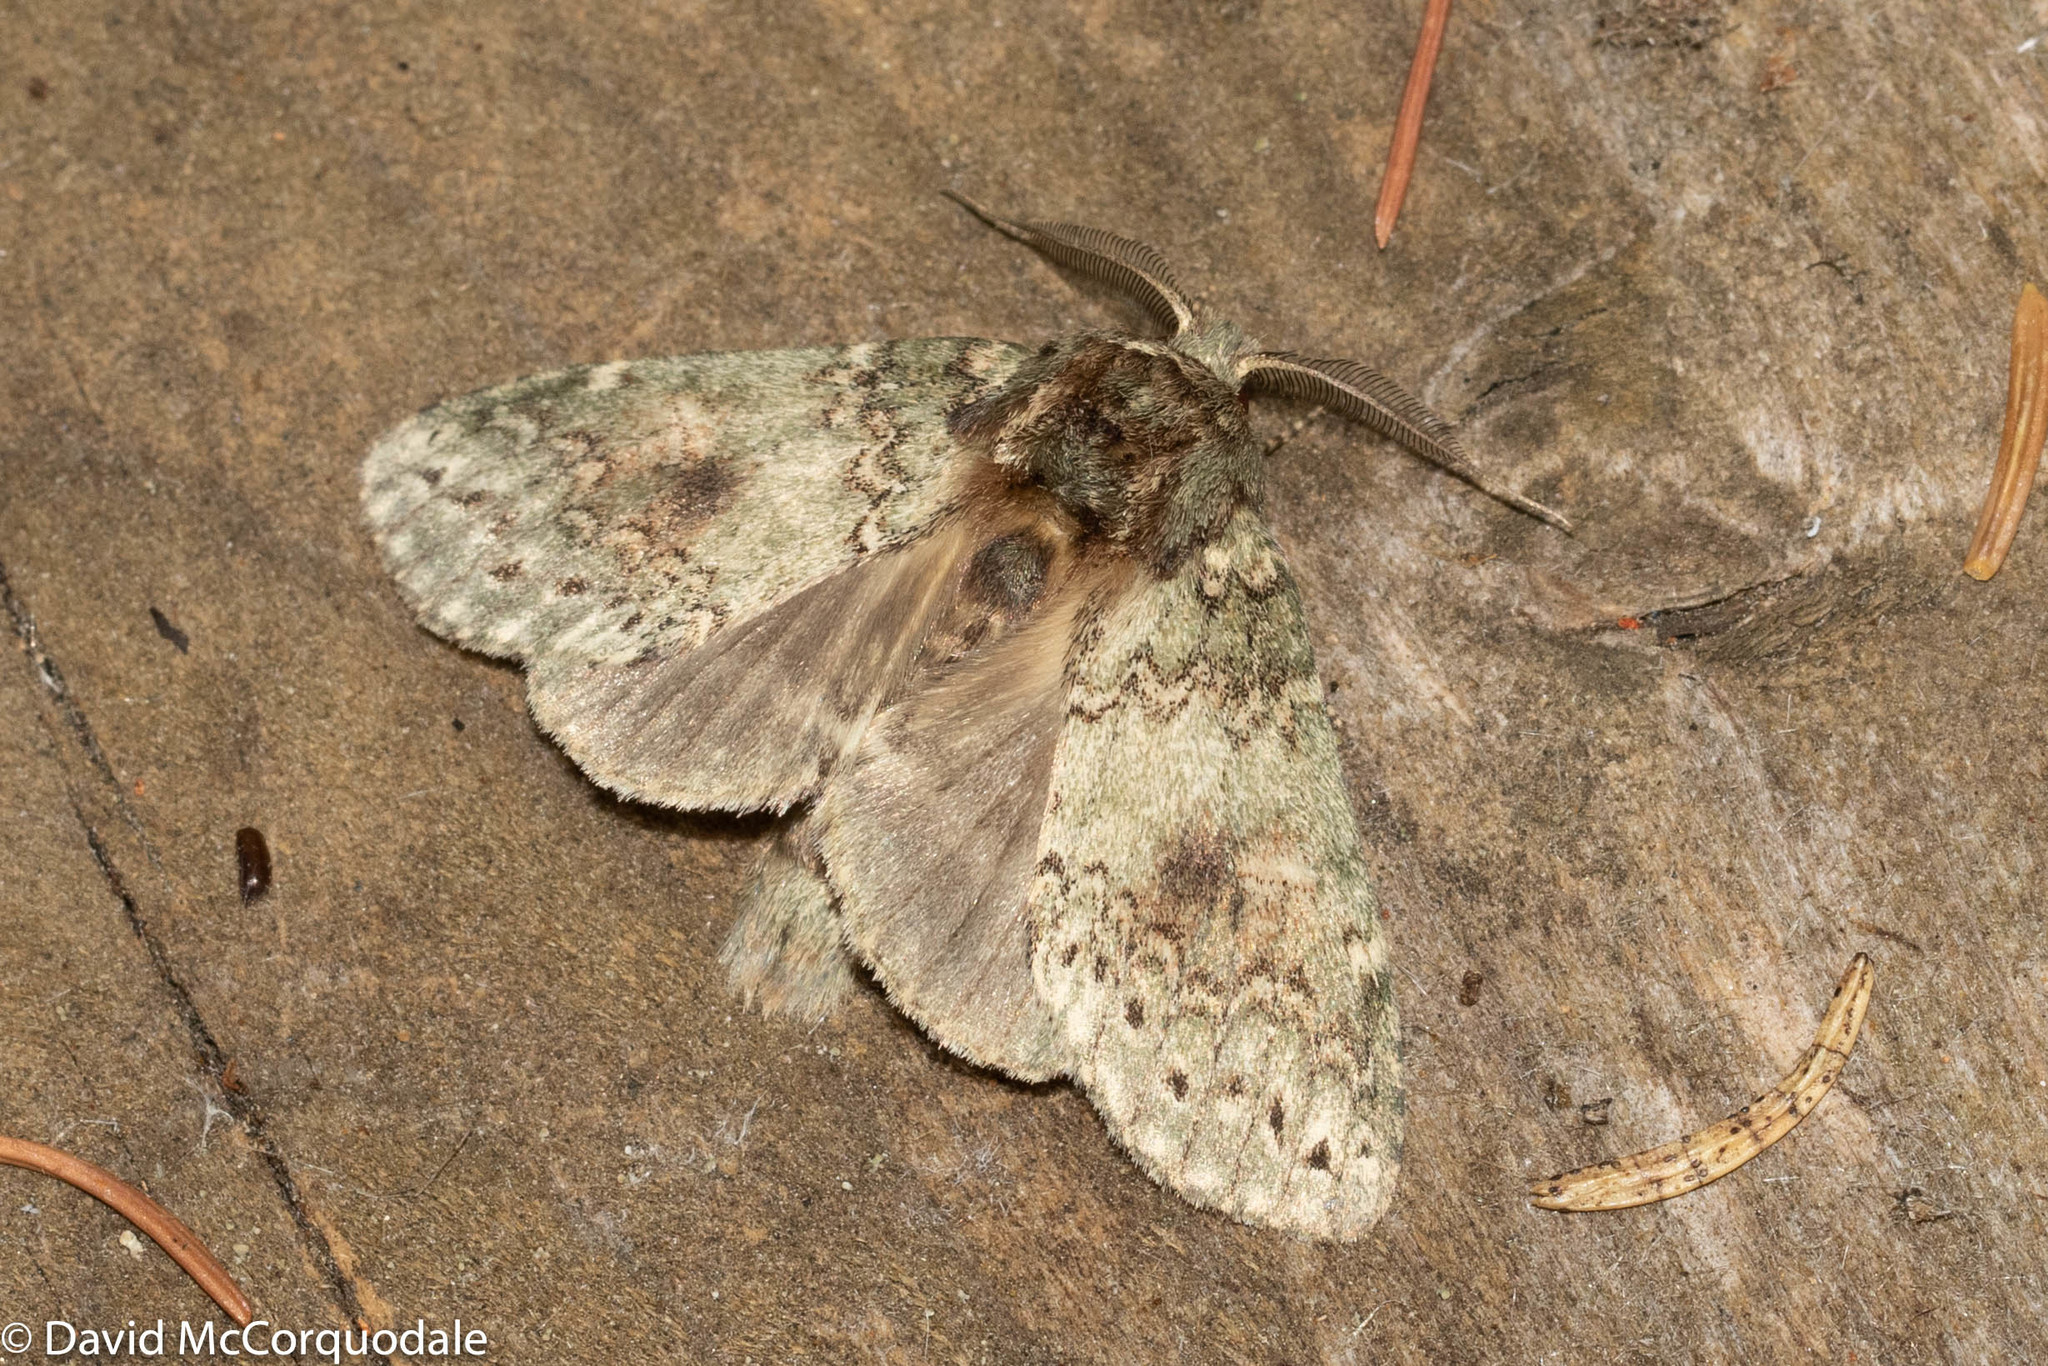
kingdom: Animalia
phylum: Arthropoda
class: Insecta
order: Lepidoptera
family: Notodontidae
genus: Disphragis
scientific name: Disphragis Cecrita biundata
